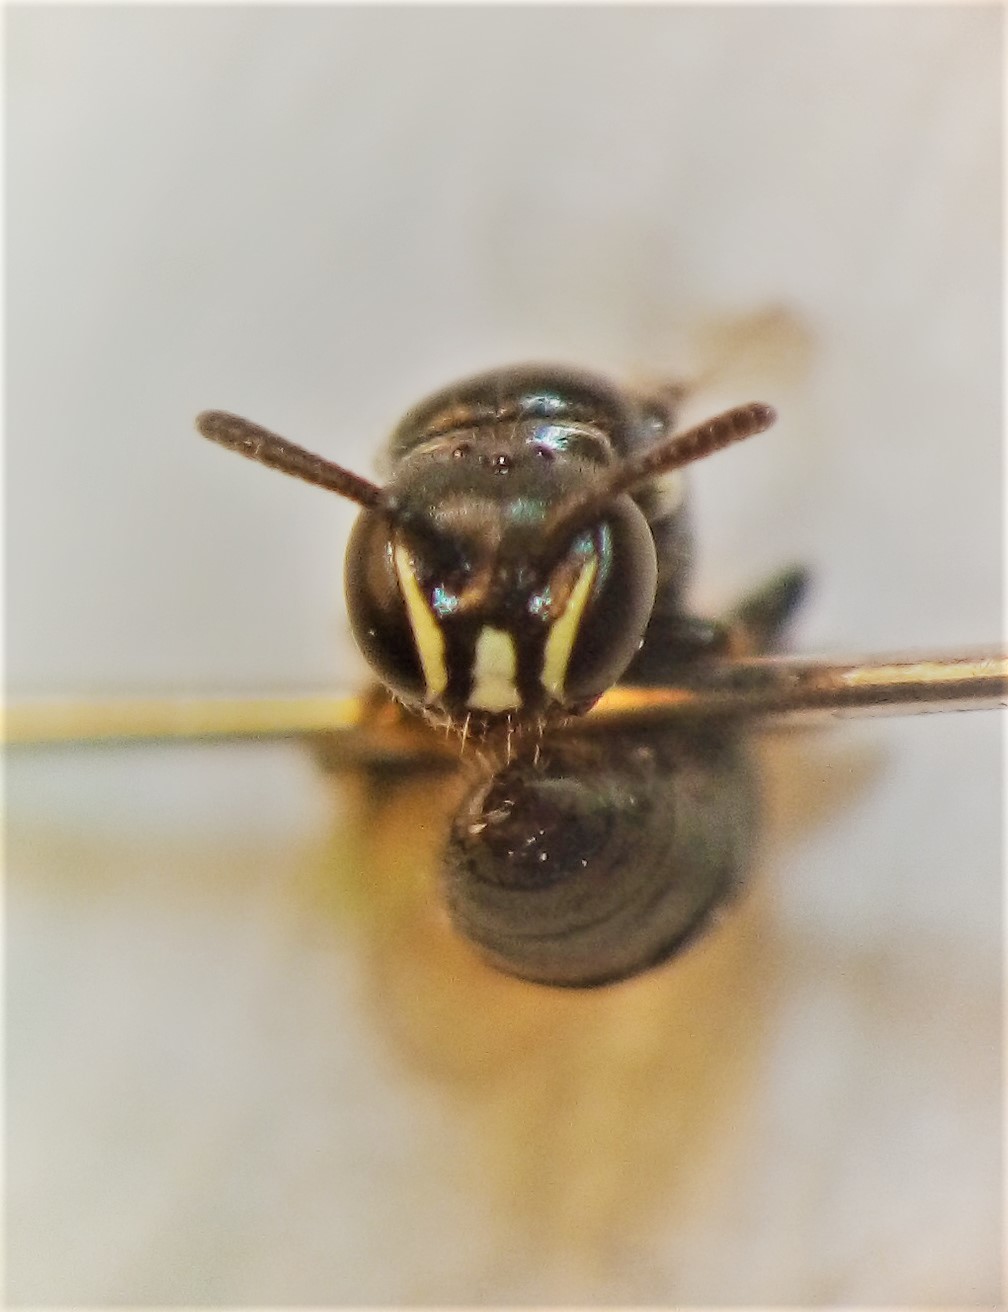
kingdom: Animalia
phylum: Arthropoda
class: Insecta
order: Hymenoptera
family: Colletidae
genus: Hylaeus
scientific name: Hylaeus perhumilis
